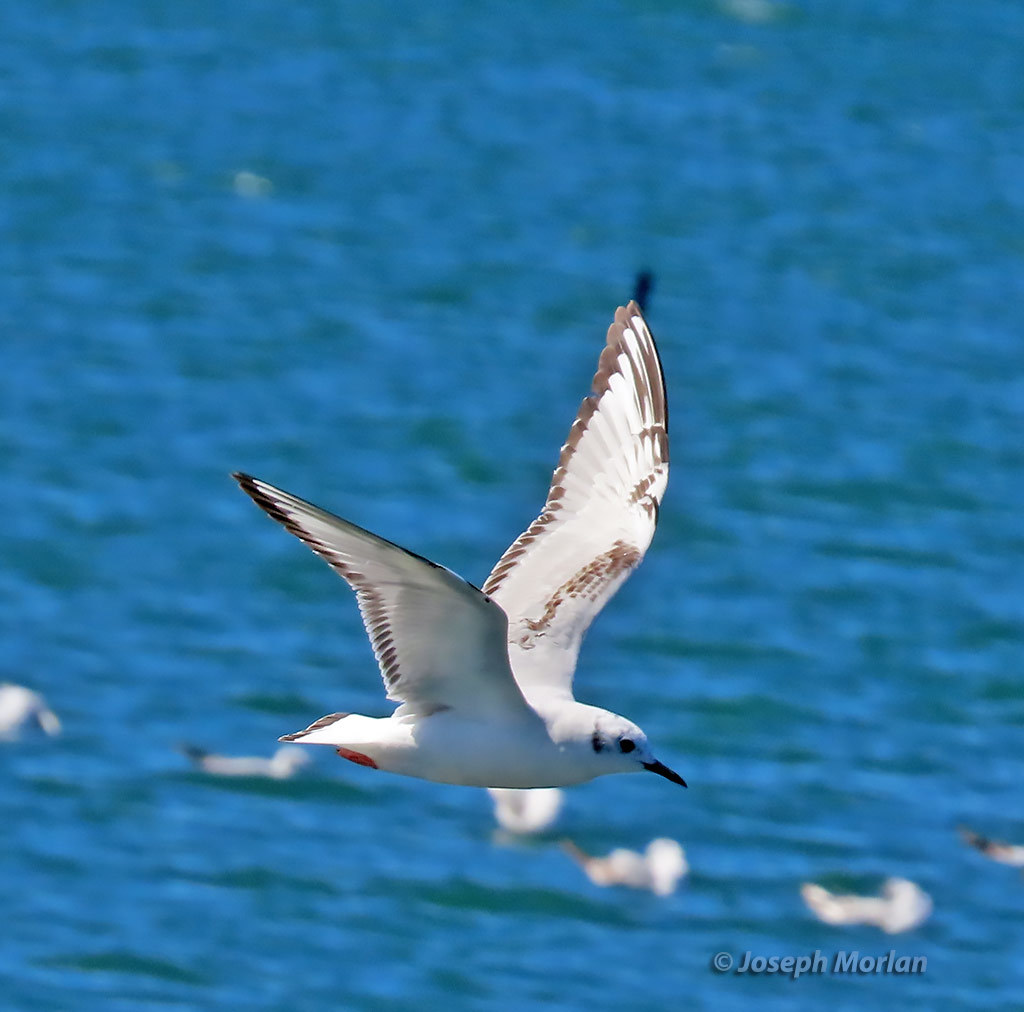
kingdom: Animalia
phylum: Chordata
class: Aves
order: Charadriiformes
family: Laridae
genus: Chroicocephalus
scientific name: Chroicocephalus philadelphia
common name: Bonaparte's gull
